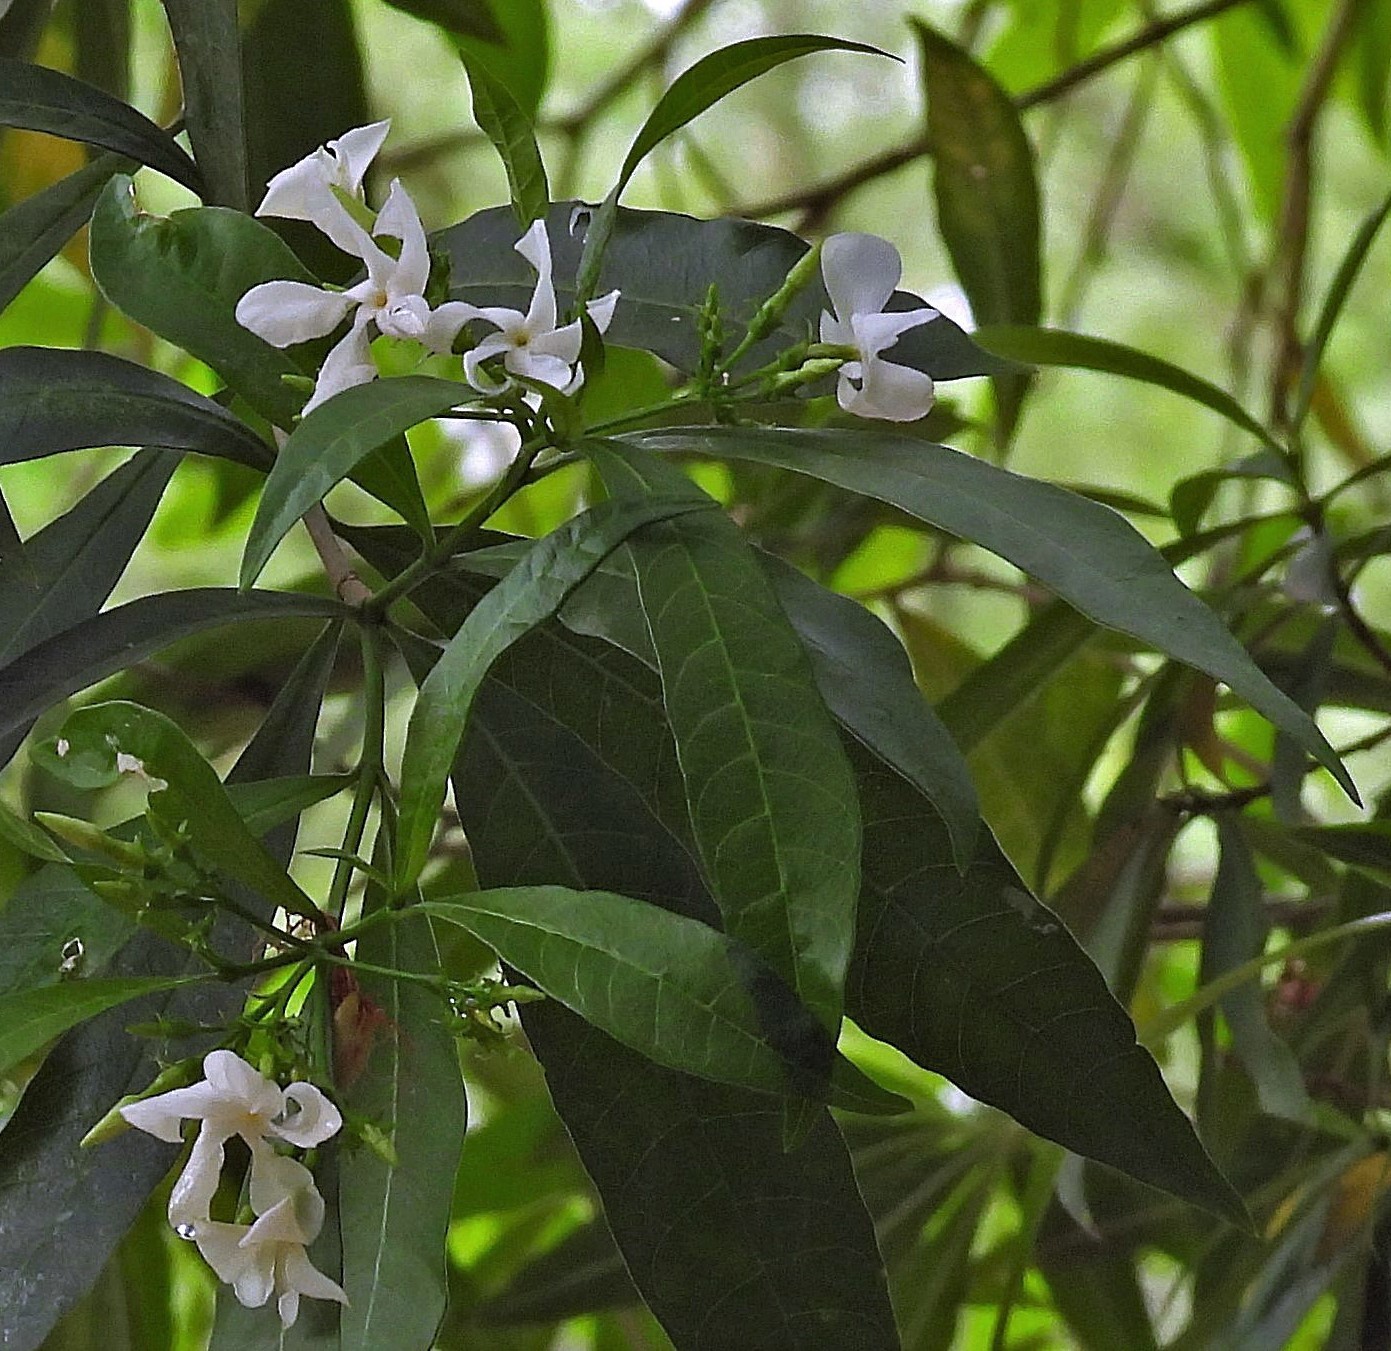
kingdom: Plantae
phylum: Tracheophyta
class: Magnoliopsida
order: Gentianales
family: Apocynaceae
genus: Tabernaemontana
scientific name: Tabernaemontana catharinensis
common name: Pinwheel-flower
